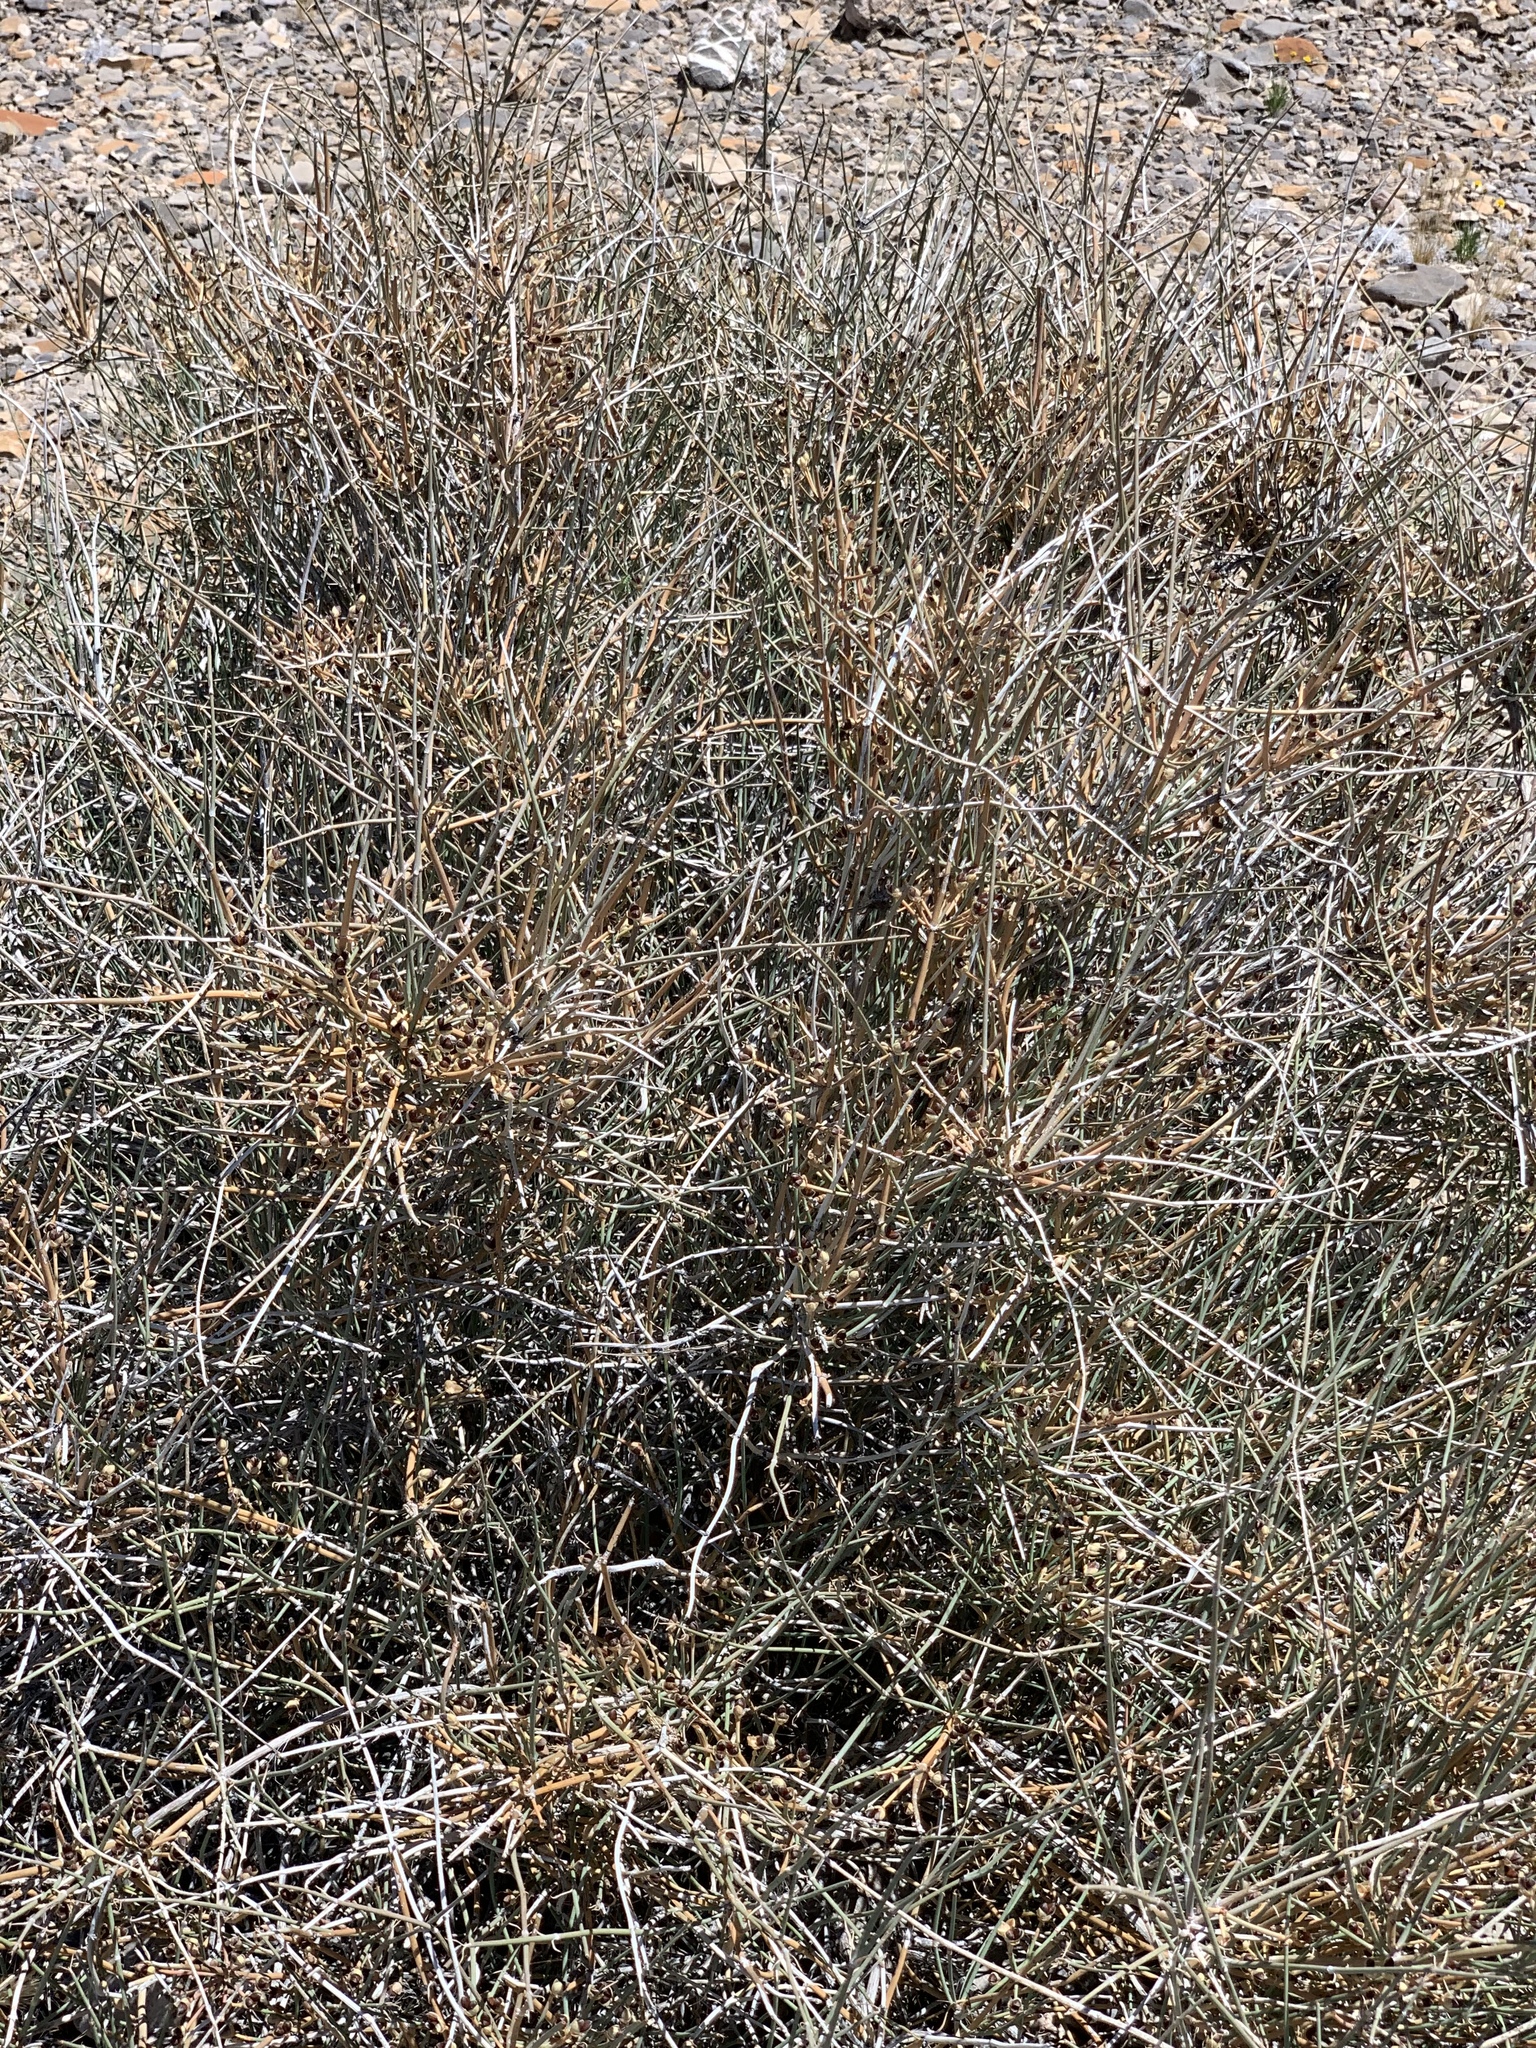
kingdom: Plantae
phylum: Tracheophyta
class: Gnetopsida
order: Ephedrales
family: Ephedraceae
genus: Ephedra
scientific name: Ephedra nevadensis
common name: Gray ephedra
